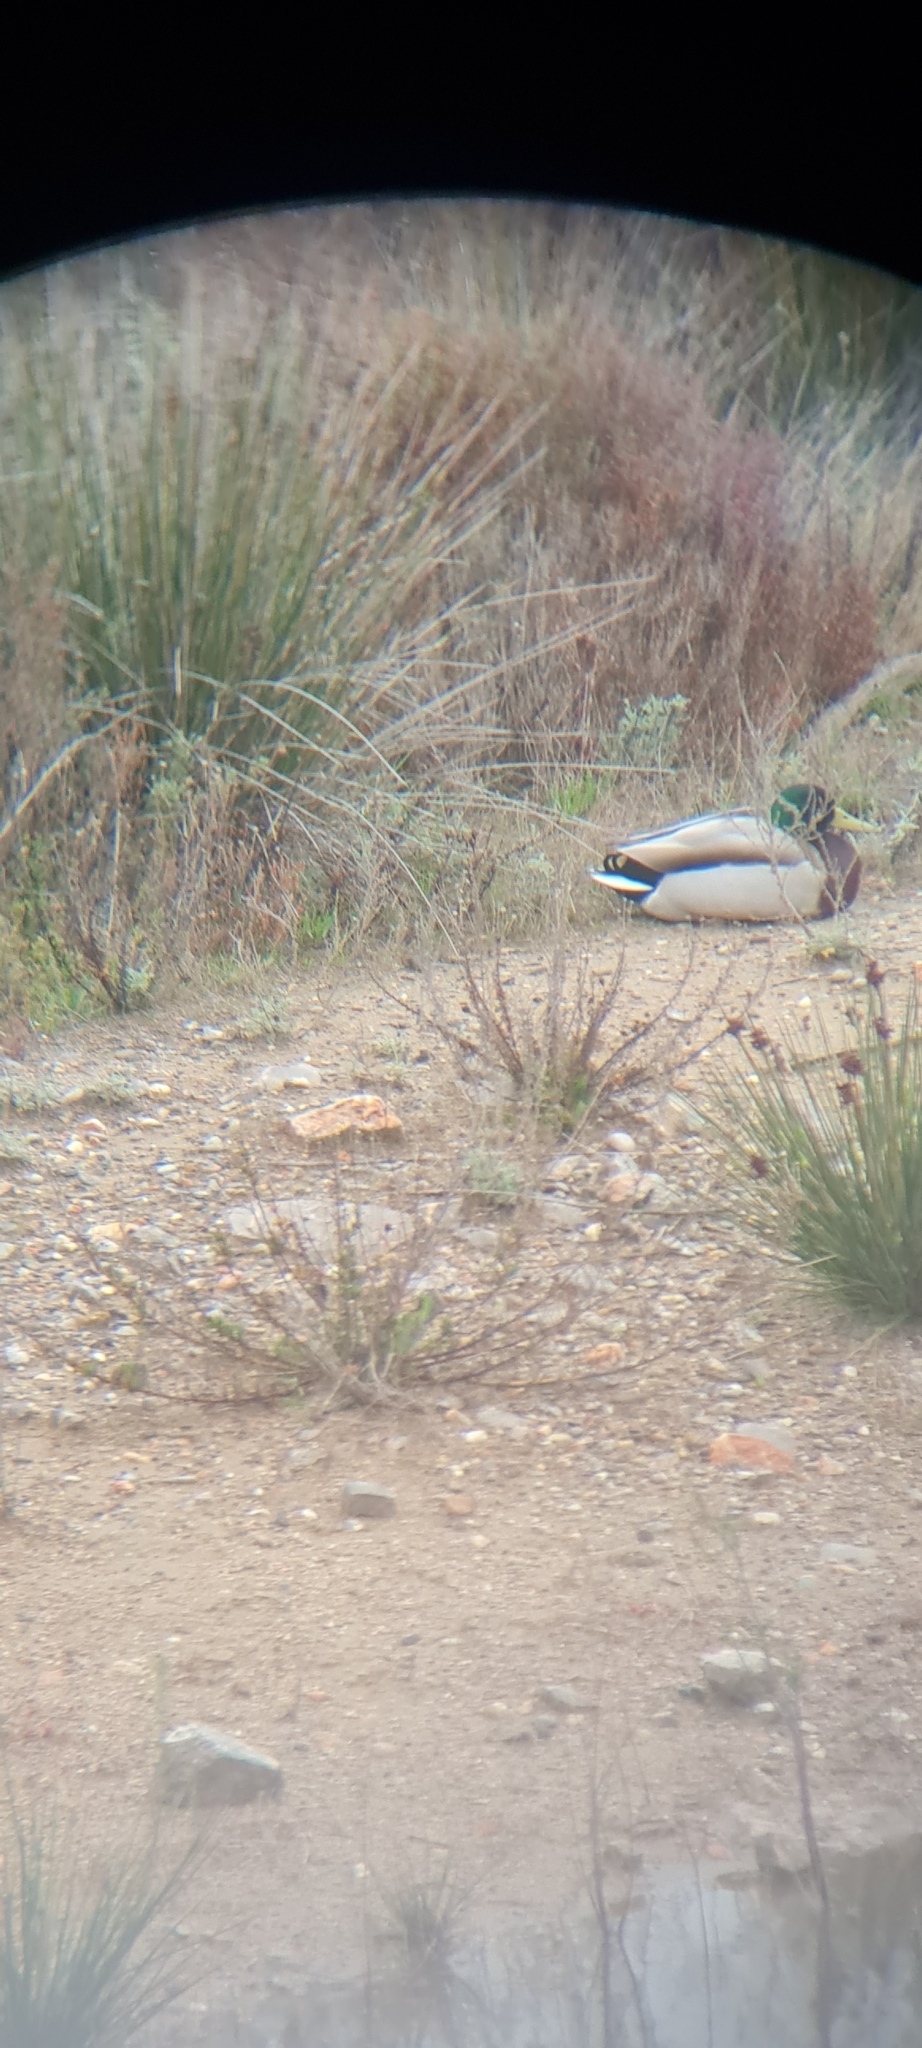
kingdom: Animalia
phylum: Chordata
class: Aves
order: Anseriformes
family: Anatidae
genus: Anas
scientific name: Anas platyrhynchos
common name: Mallard
